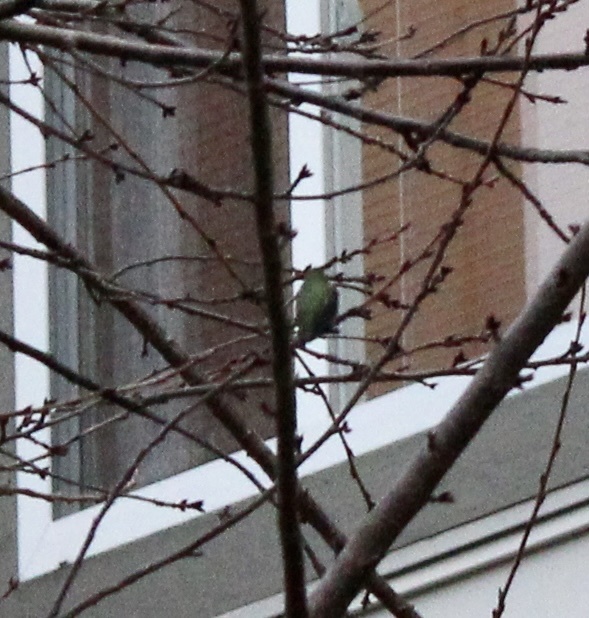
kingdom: Animalia
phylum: Chordata
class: Aves
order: Apodiformes
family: Trochilidae
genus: Calypte
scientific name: Calypte anna
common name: Anna's hummingbird
